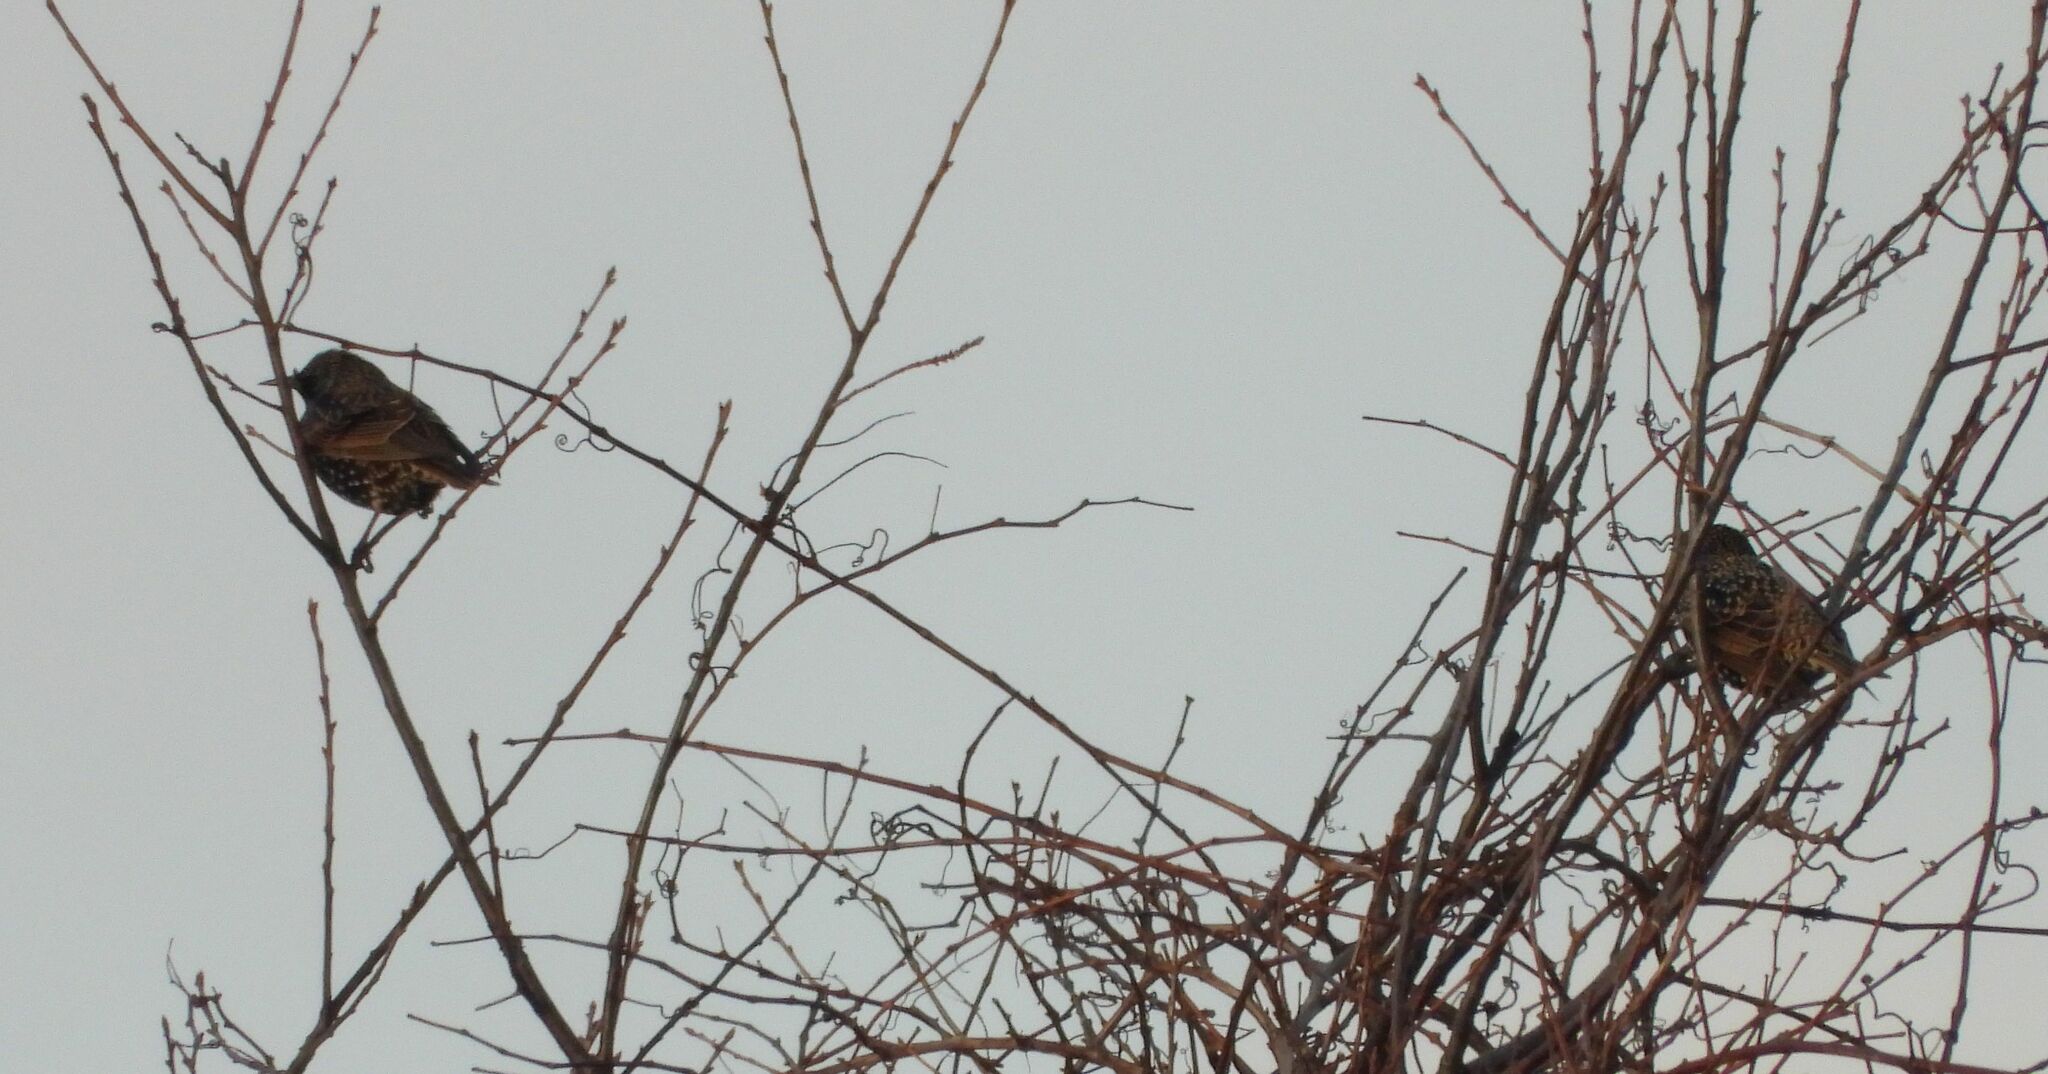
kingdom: Animalia
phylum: Chordata
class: Aves
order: Passeriformes
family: Sturnidae
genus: Sturnus
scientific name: Sturnus vulgaris
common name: Common starling
